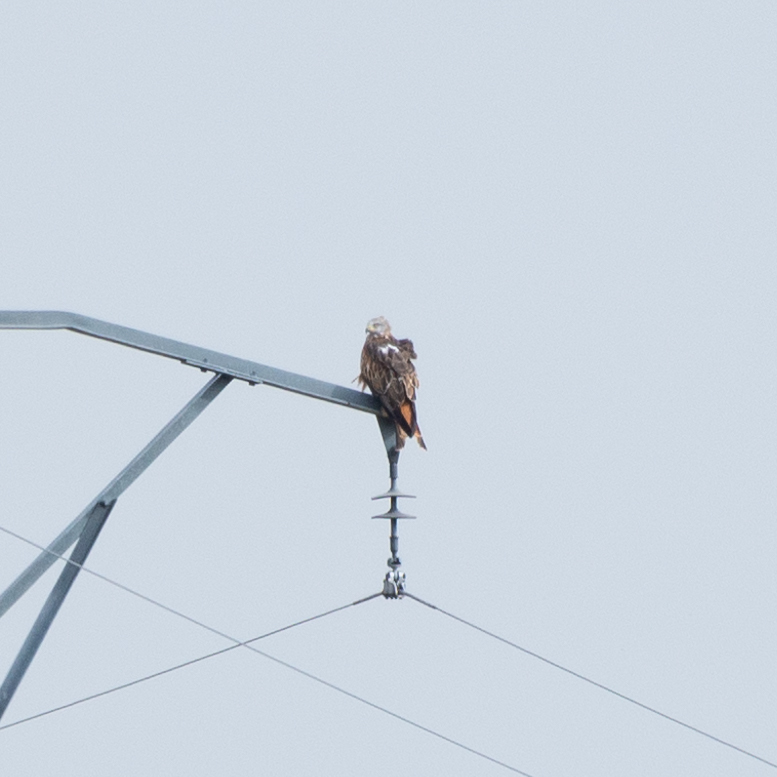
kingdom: Animalia
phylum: Chordata
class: Aves
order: Accipitriformes
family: Accipitridae
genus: Milvus
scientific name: Milvus milvus
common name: Red kite
